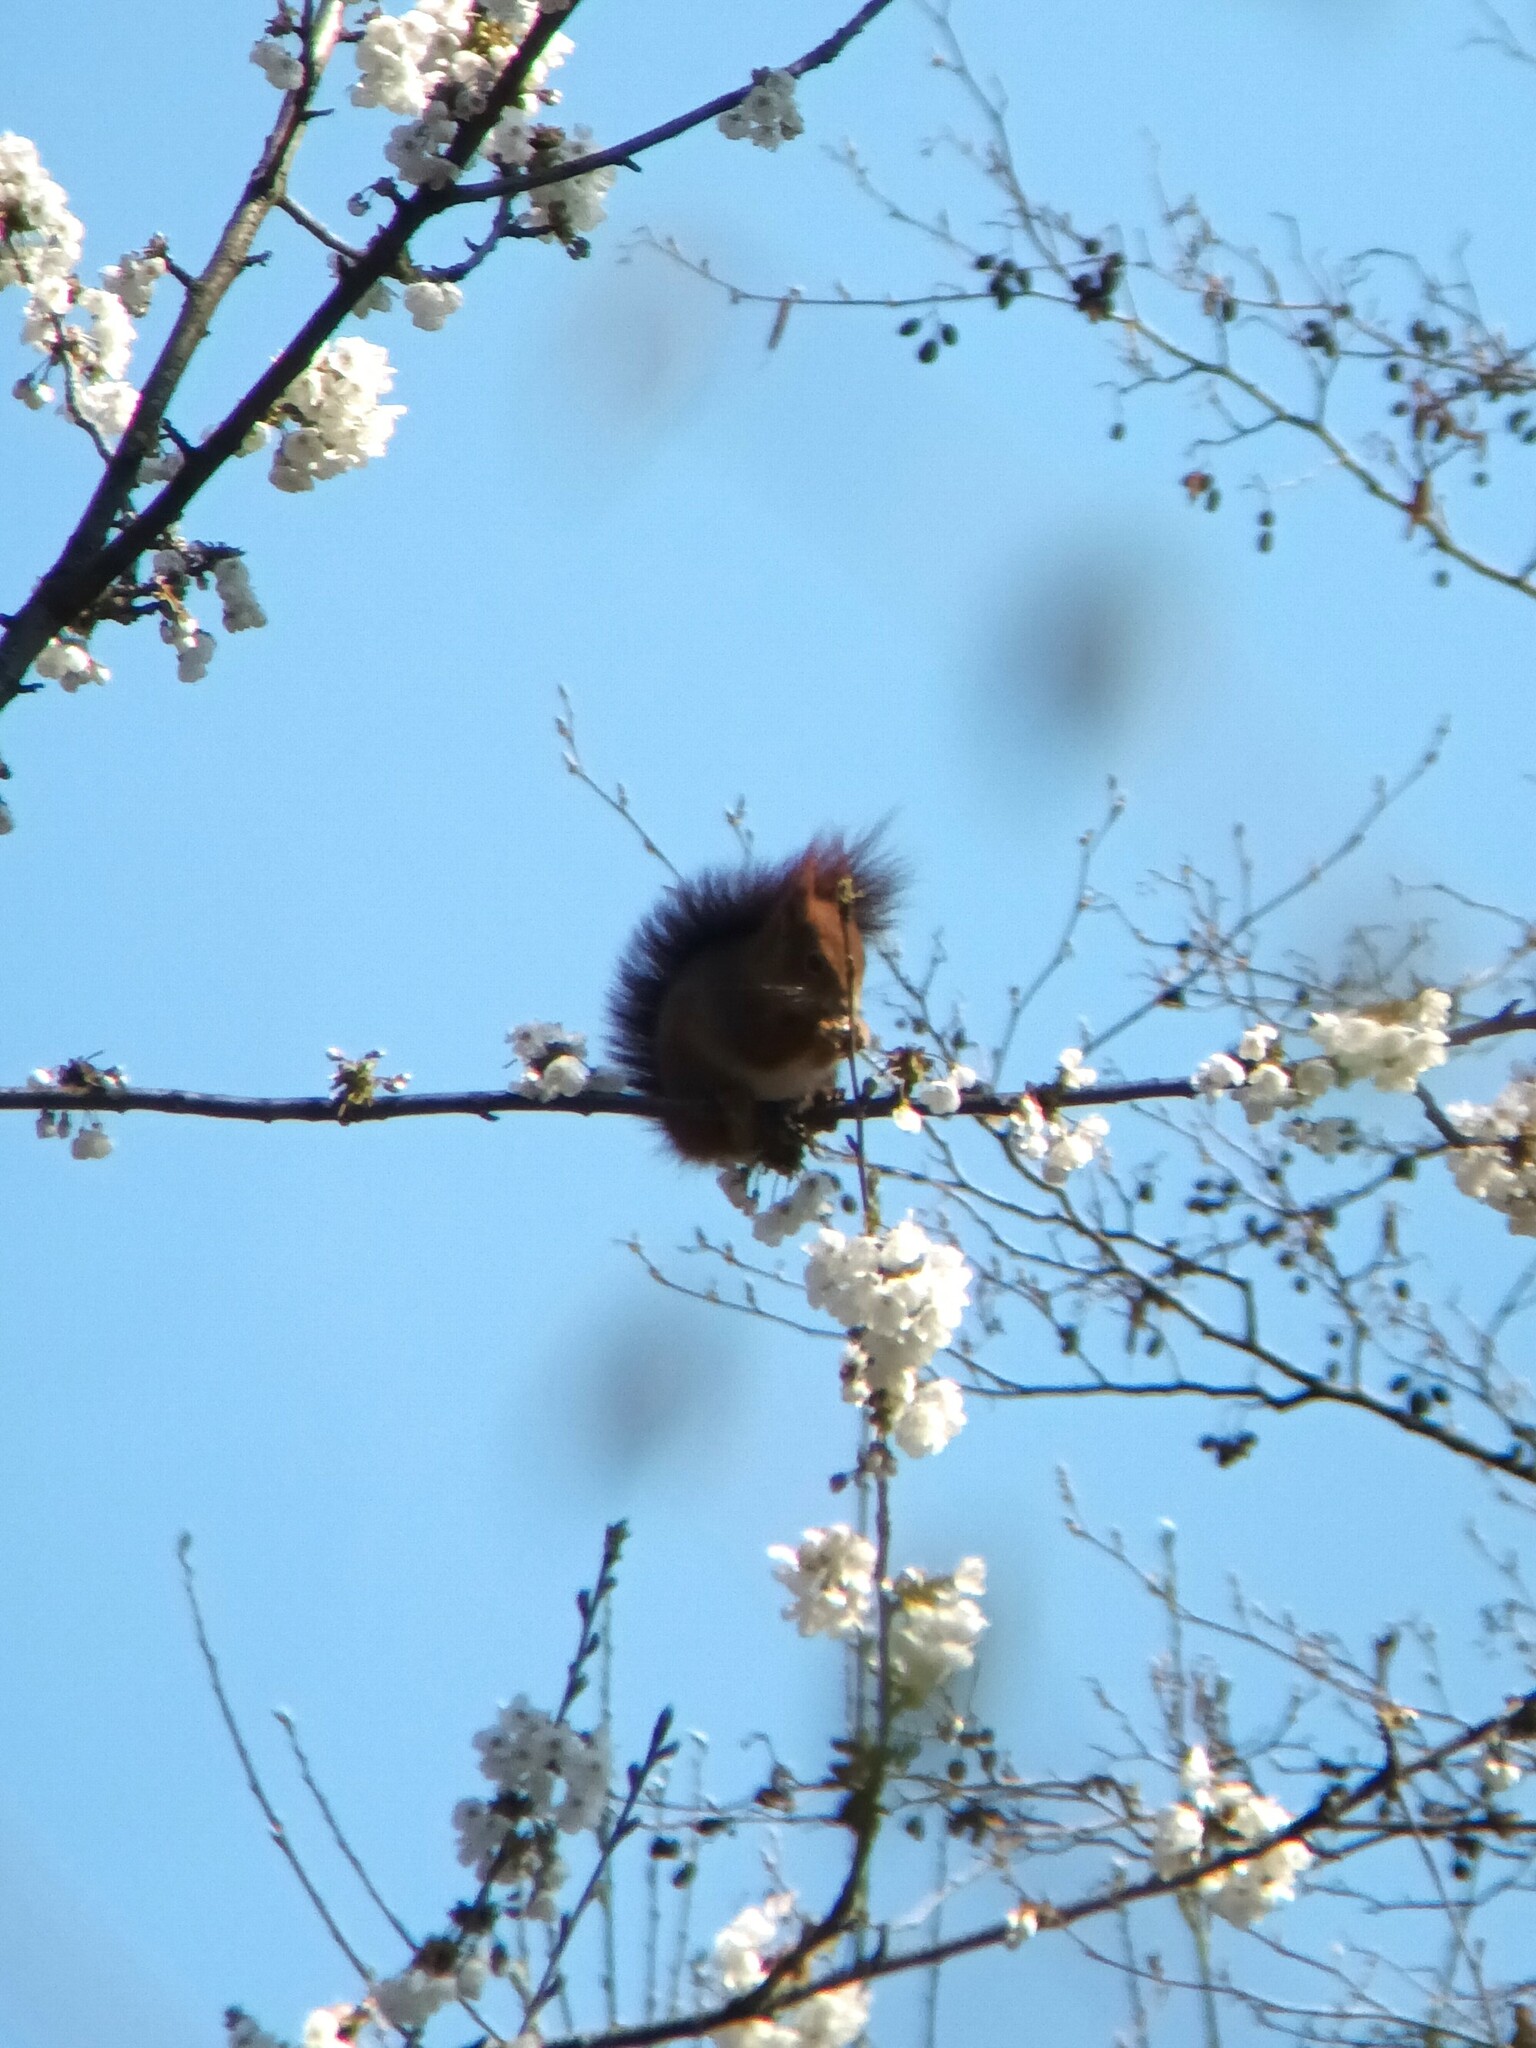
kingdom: Animalia
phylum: Chordata
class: Mammalia
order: Rodentia
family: Sciuridae
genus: Sciurus
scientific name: Sciurus vulgaris
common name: Eurasian red squirrel
